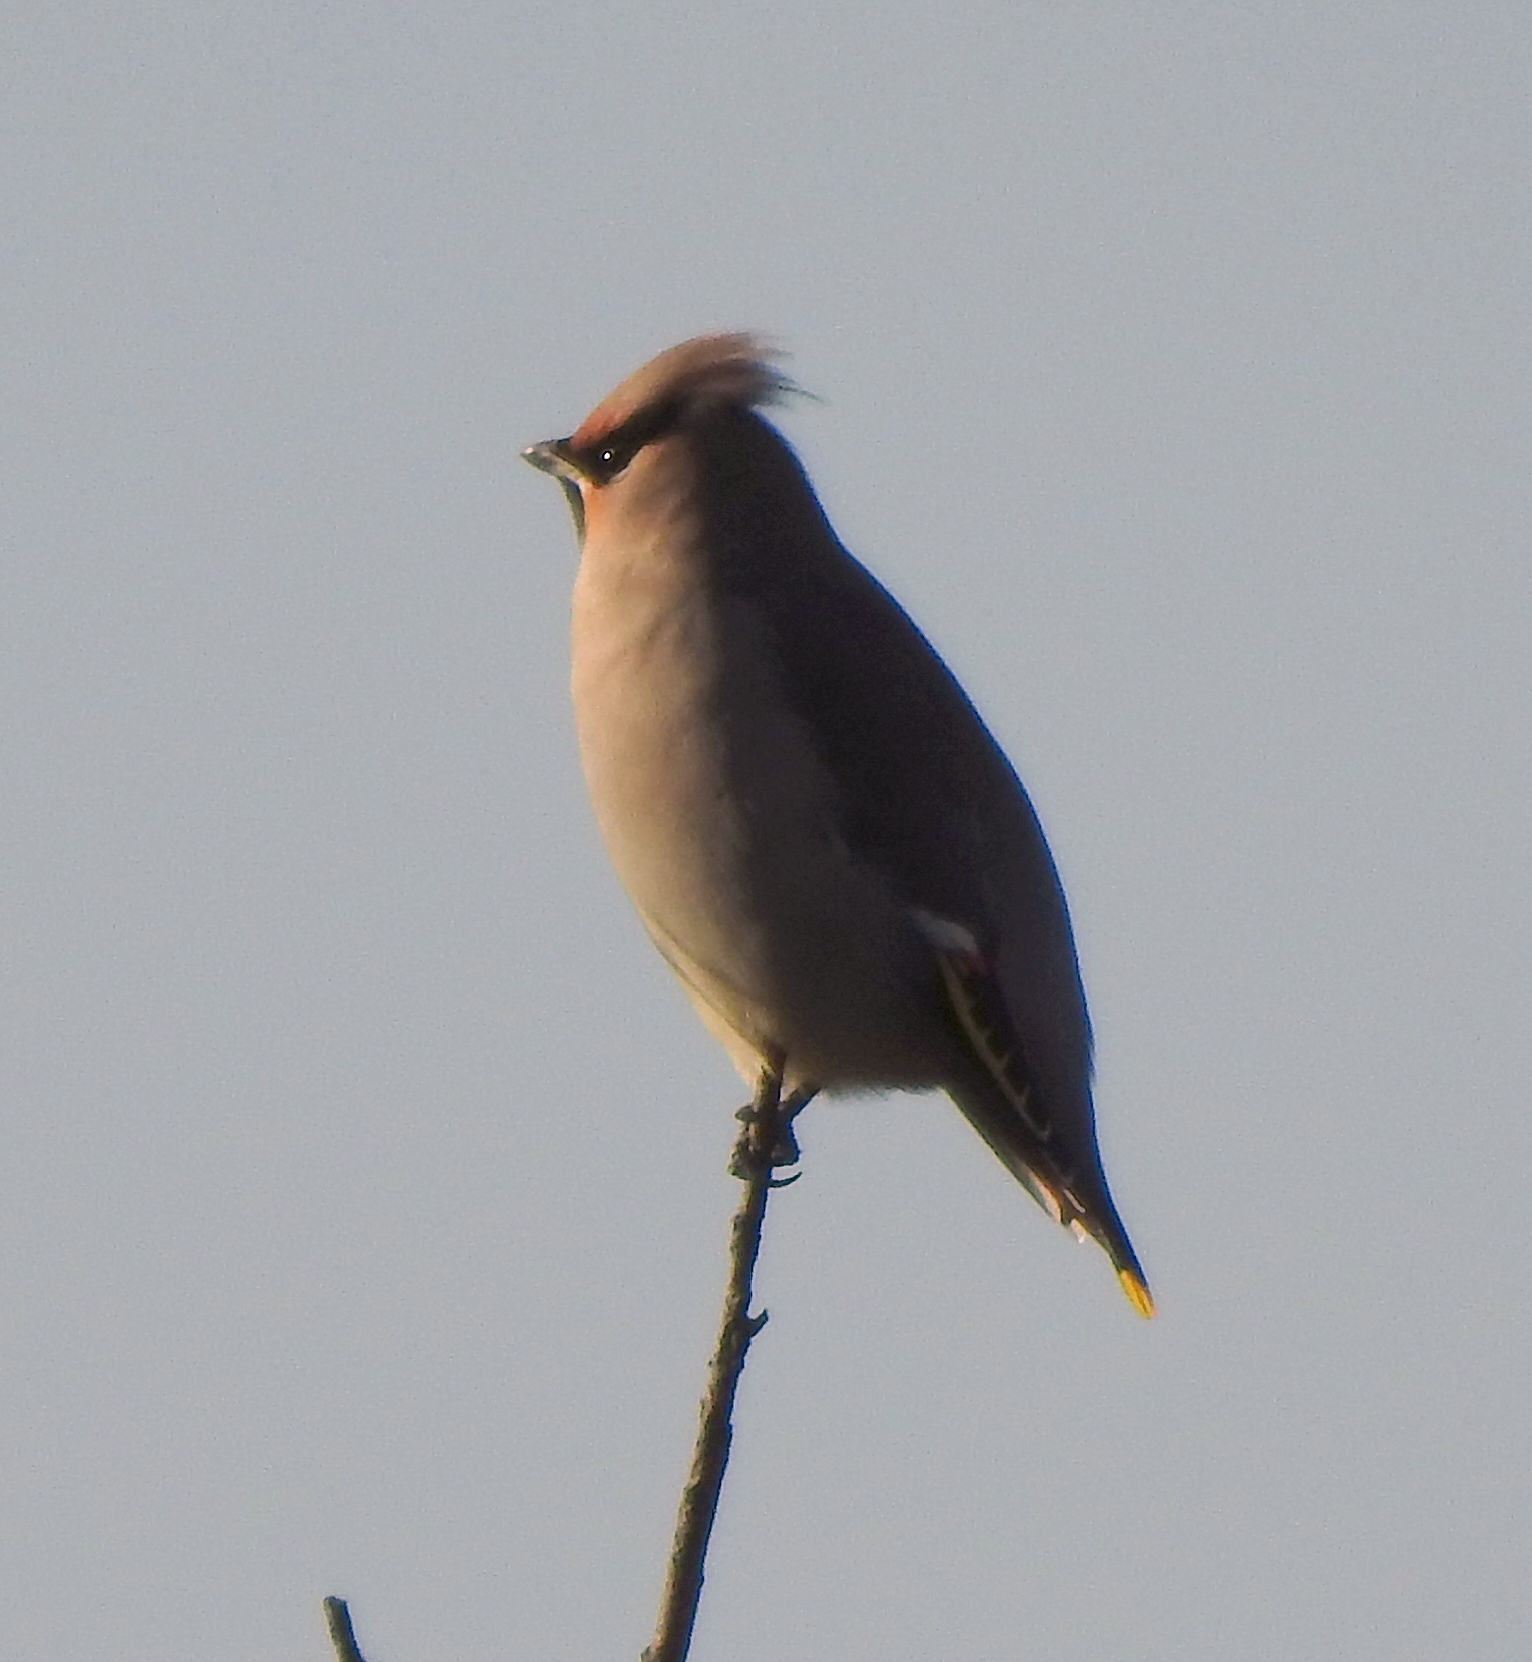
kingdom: Animalia
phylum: Chordata
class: Aves
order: Passeriformes
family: Bombycillidae
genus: Bombycilla
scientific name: Bombycilla garrulus
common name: Bohemian waxwing
